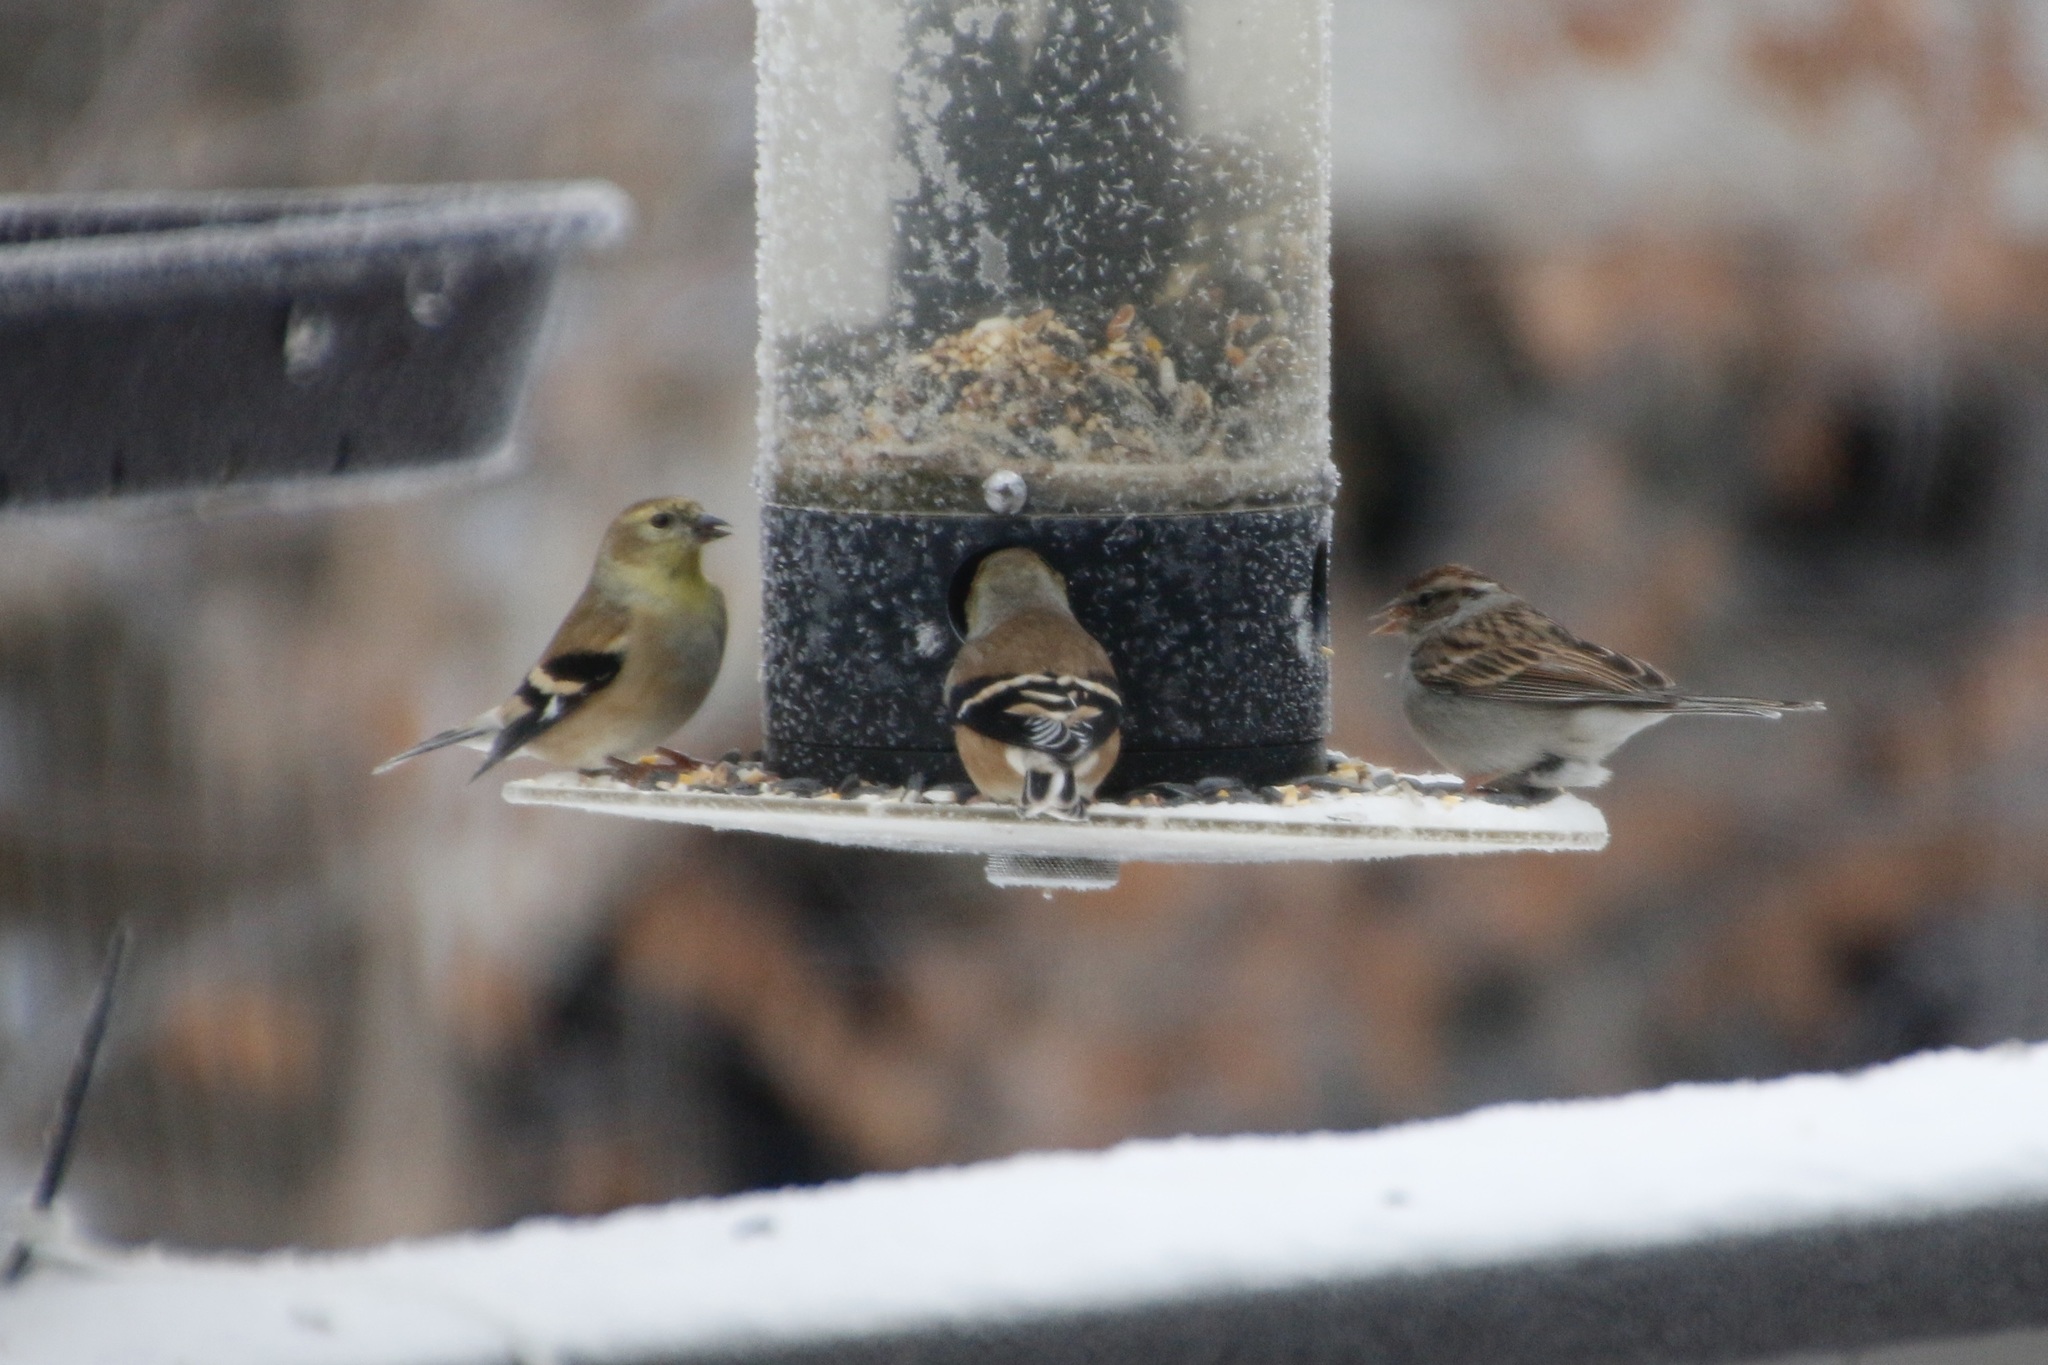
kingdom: Animalia
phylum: Chordata
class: Aves
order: Passeriformes
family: Fringillidae
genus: Spinus
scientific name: Spinus tristis
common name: American goldfinch
